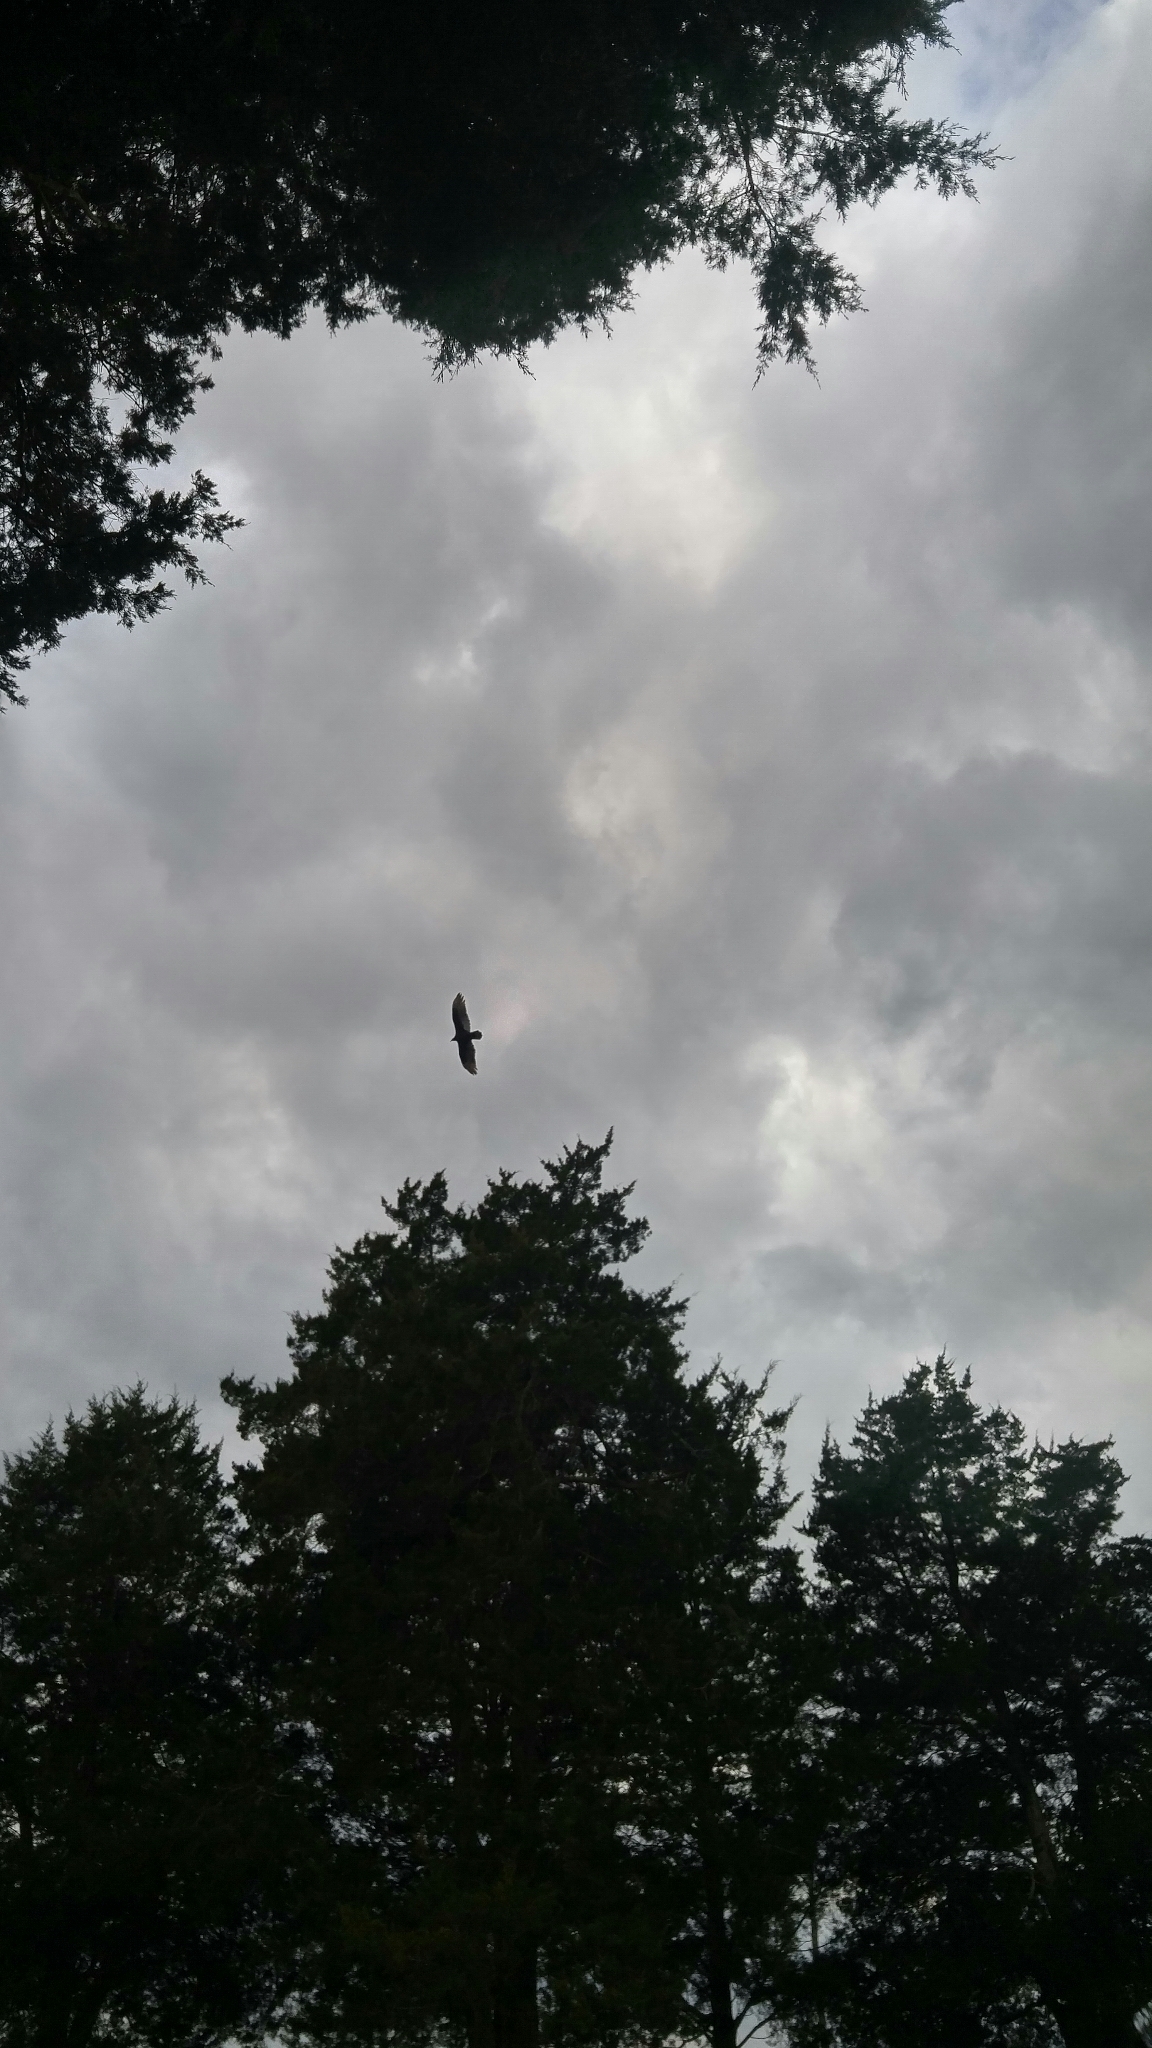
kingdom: Animalia
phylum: Chordata
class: Aves
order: Accipitriformes
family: Cathartidae
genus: Cathartes
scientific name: Cathartes aura
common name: Turkey vulture
